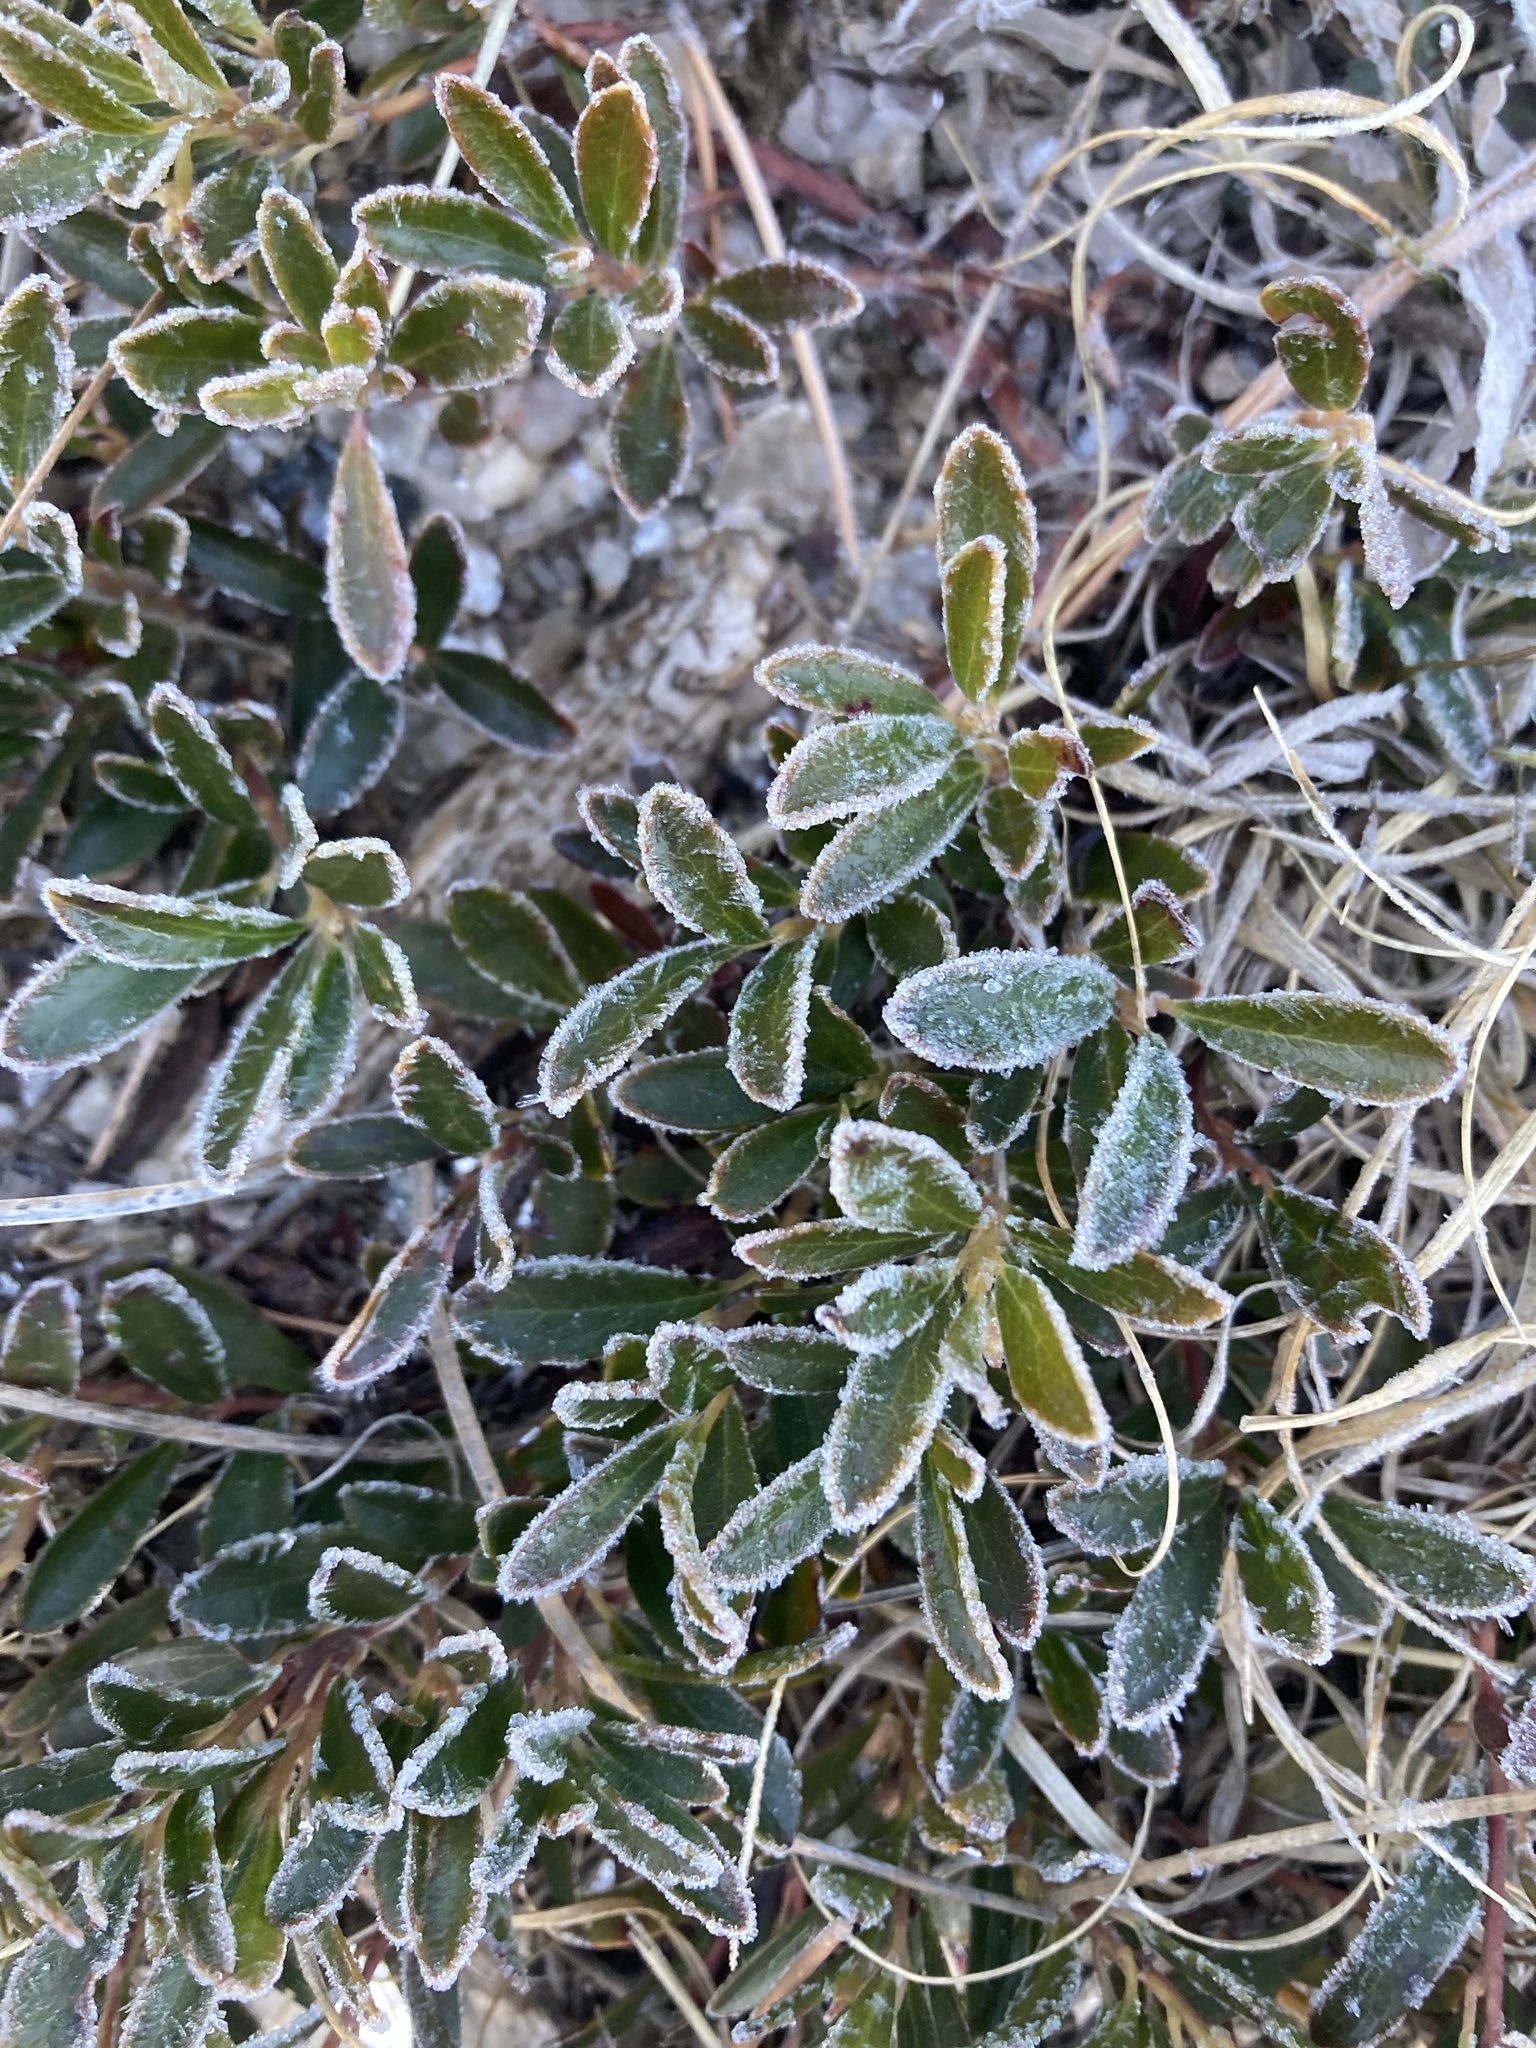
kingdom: Plantae
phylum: Tracheophyta
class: Magnoliopsida
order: Ericales
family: Ericaceae
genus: Arctostaphylos
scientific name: Arctostaphylos uva-ursi
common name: Bearberry
